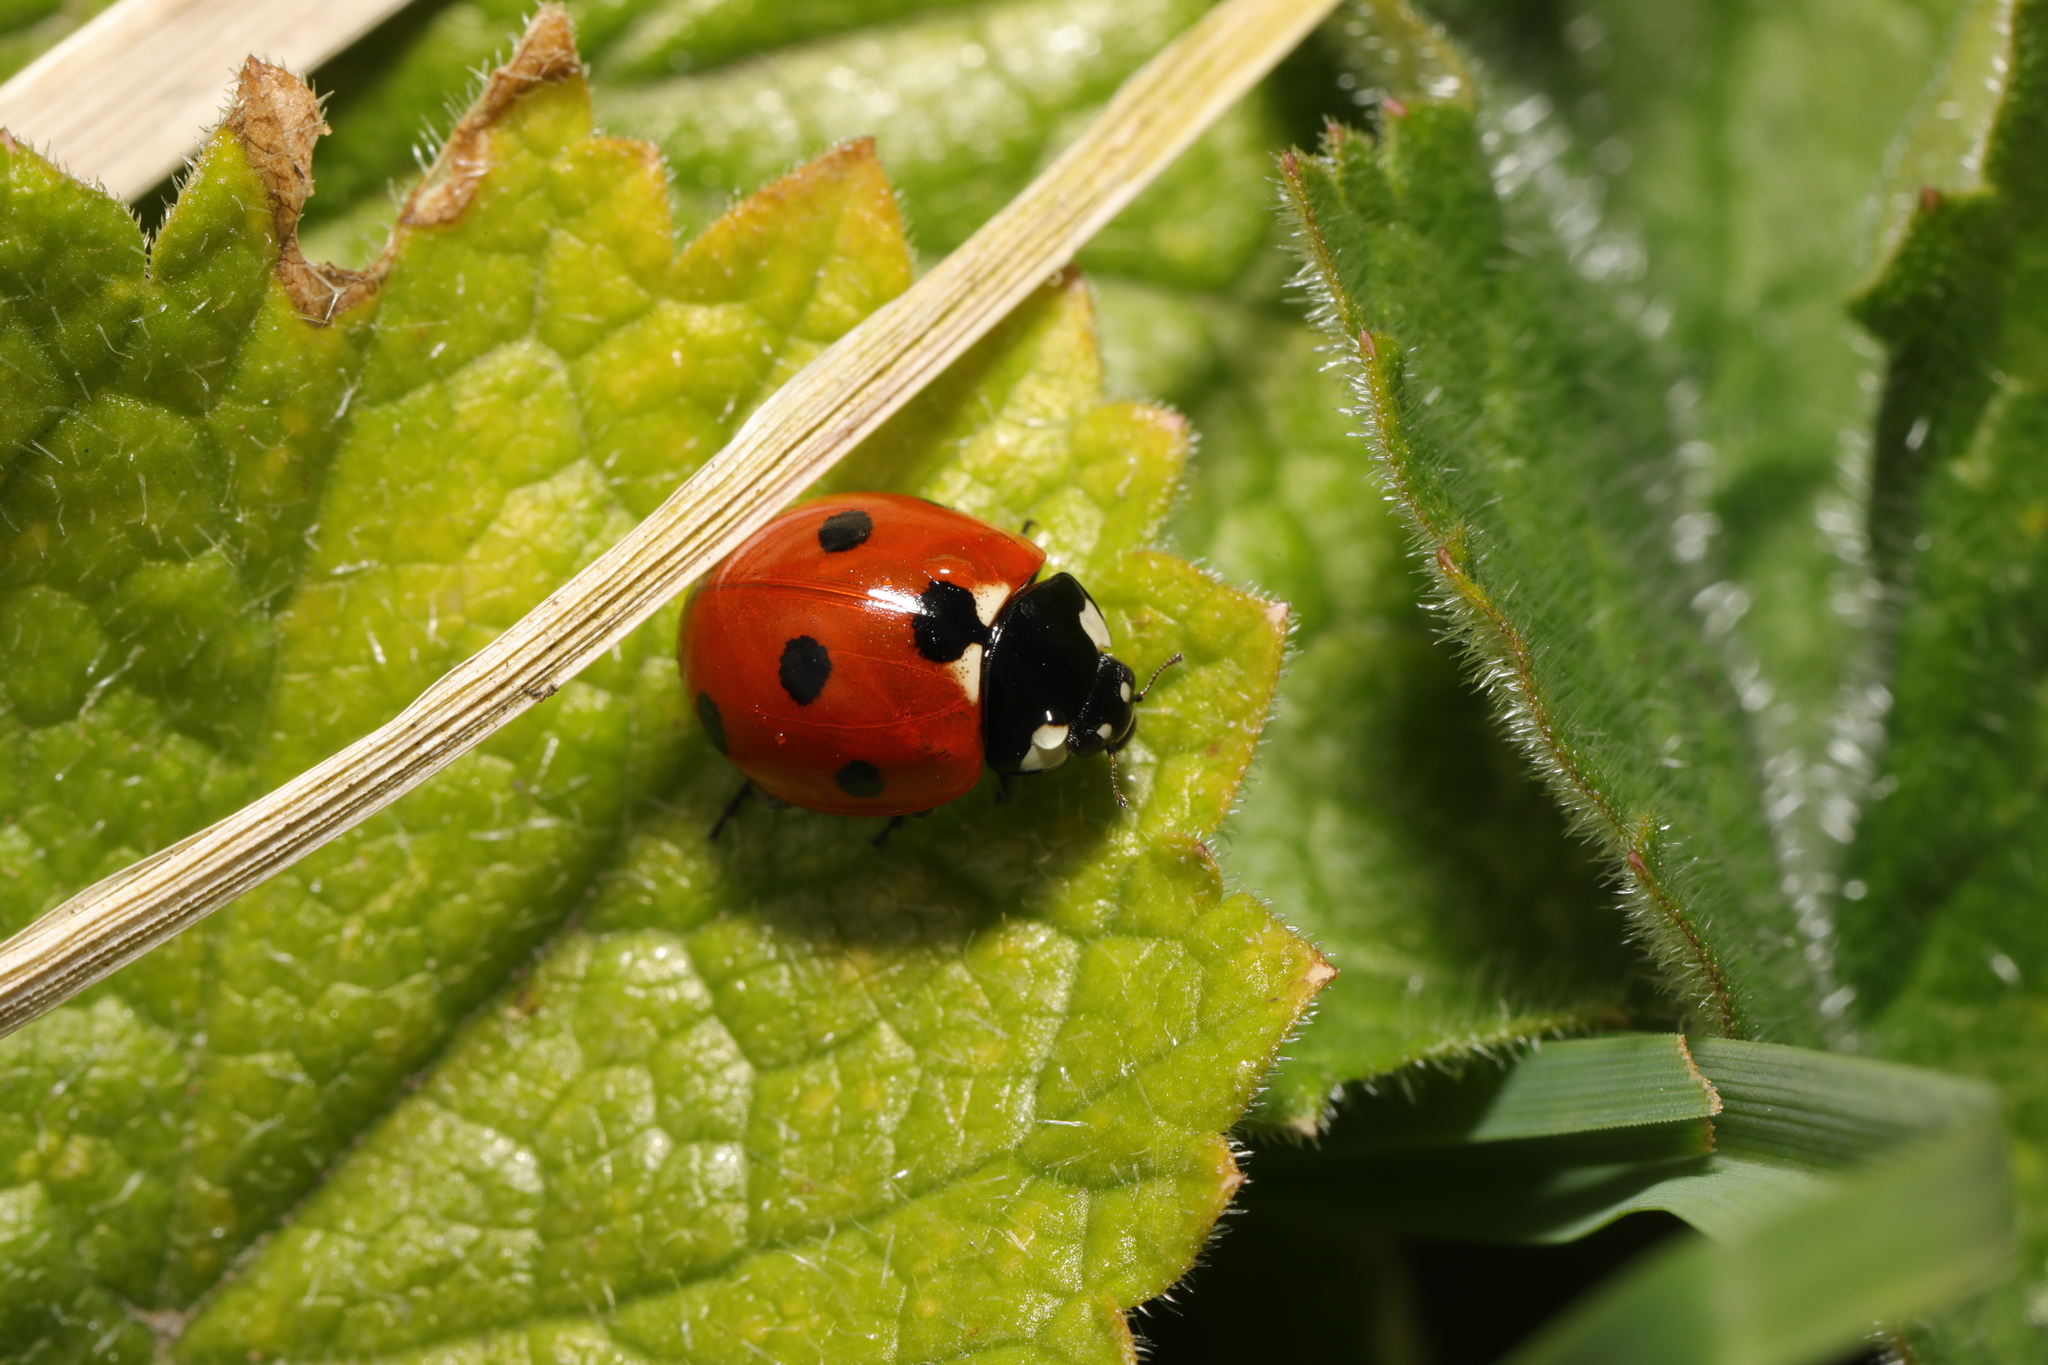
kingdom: Animalia
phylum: Arthropoda
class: Insecta
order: Coleoptera
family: Coccinellidae
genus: Coccinella
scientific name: Coccinella septempunctata
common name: Sevenspotted lady beetle
